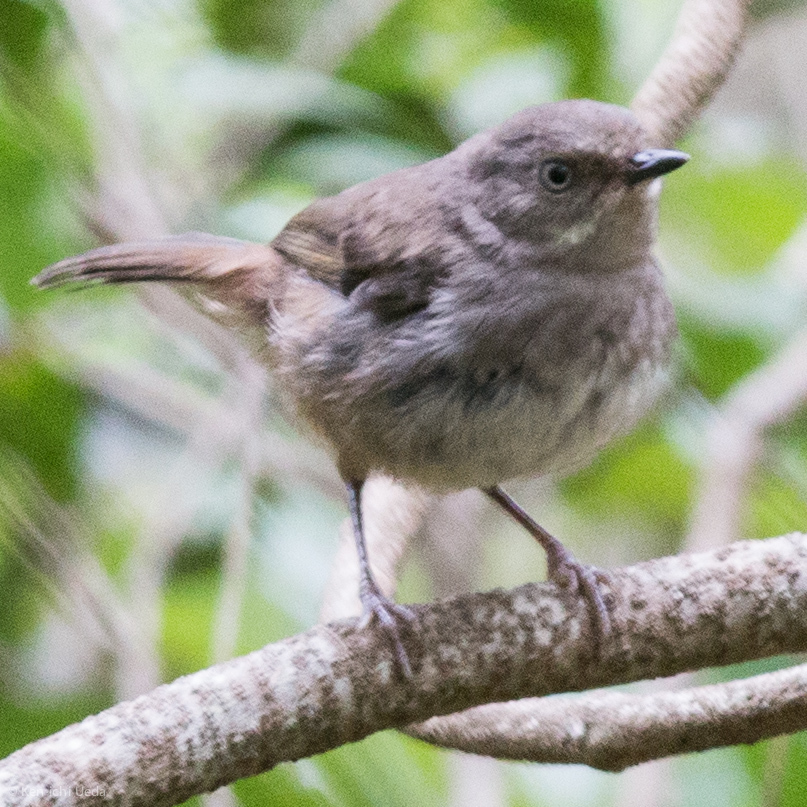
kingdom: Animalia
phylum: Chordata
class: Aves
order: Passeriformes
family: Acanthizidae
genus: Sericornis
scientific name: Sericornis frontalis
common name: White-browed scrubwren
